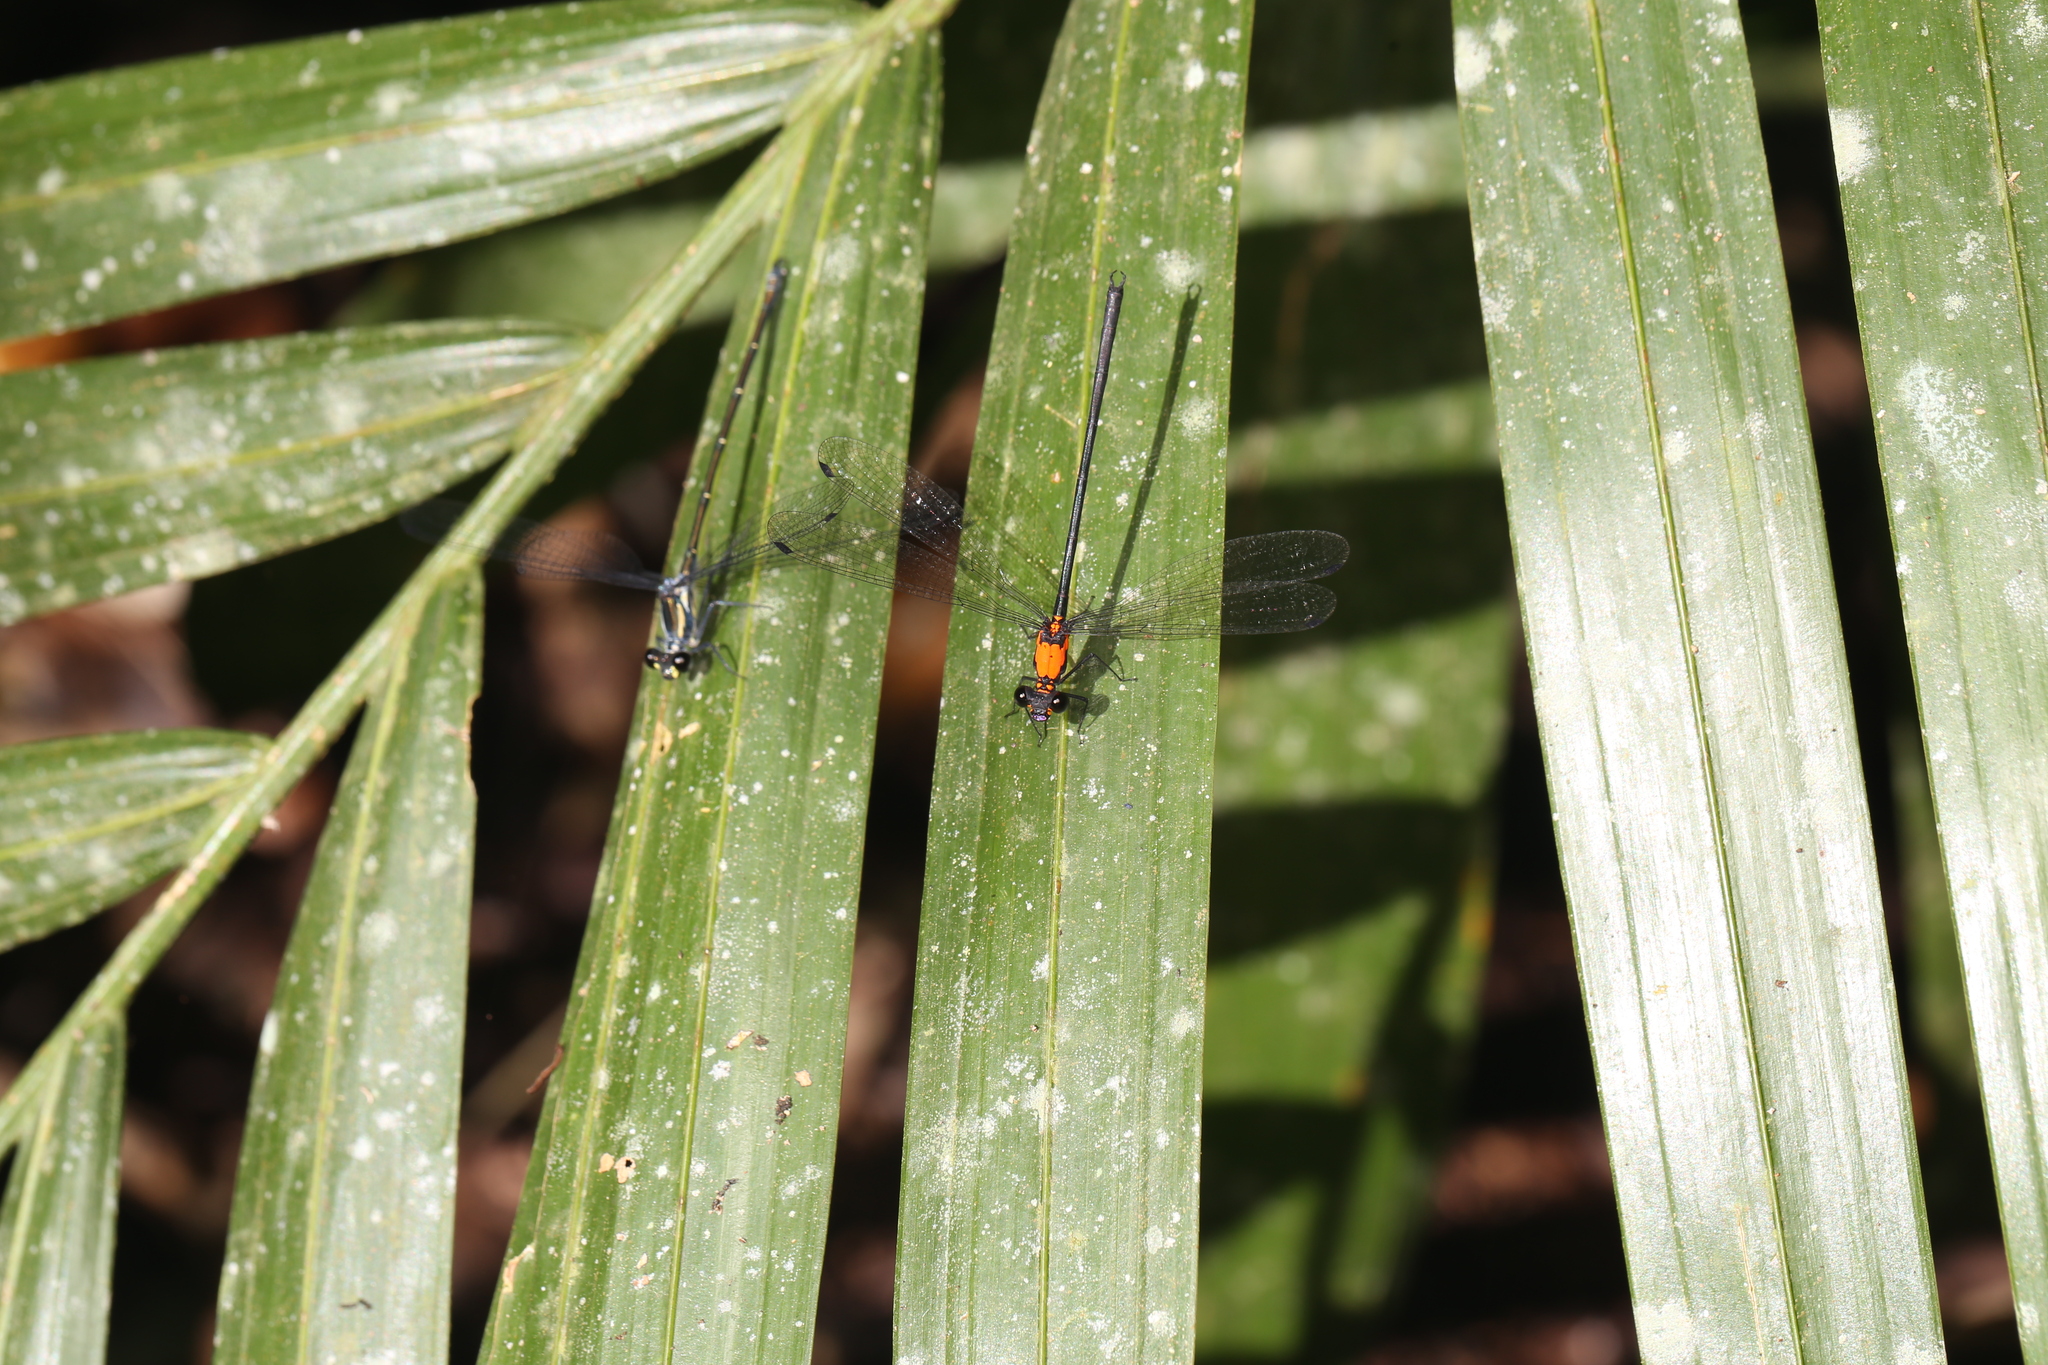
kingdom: Animalia
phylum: Arthropoda
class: Insecta
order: Odonata
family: Argiolestidae
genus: Austroargiolestes
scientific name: Austroargiolestes chrysoides
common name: Golden flatwing
